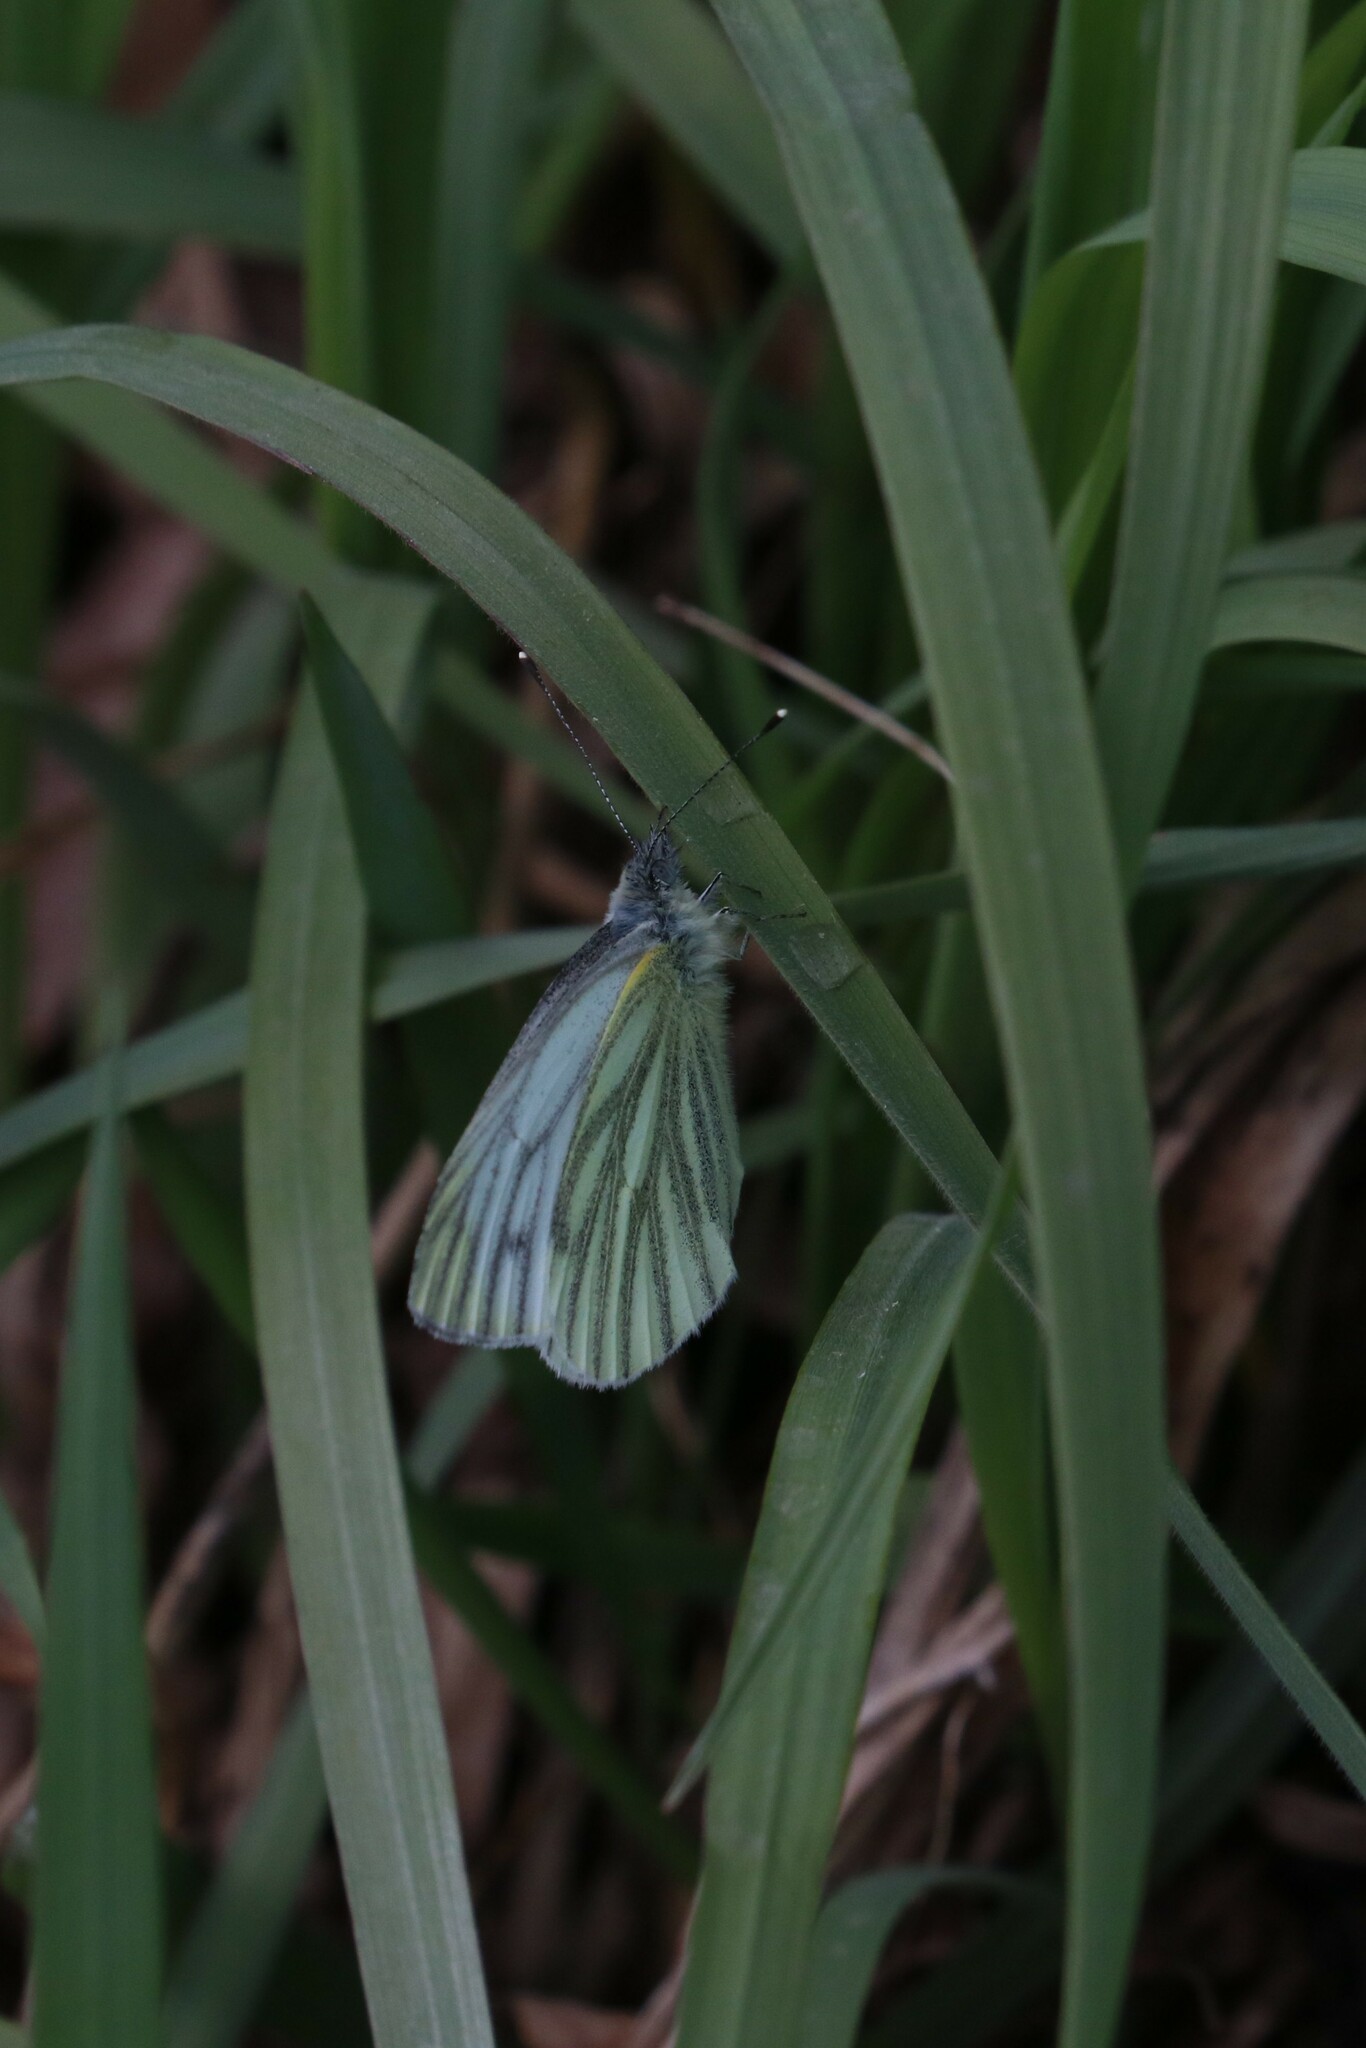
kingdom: Animalia
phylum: Arthropoda
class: Insecta
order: Lepidoptera
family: Pieridae
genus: Pieris
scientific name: Pieris napi
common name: Green-veined white
